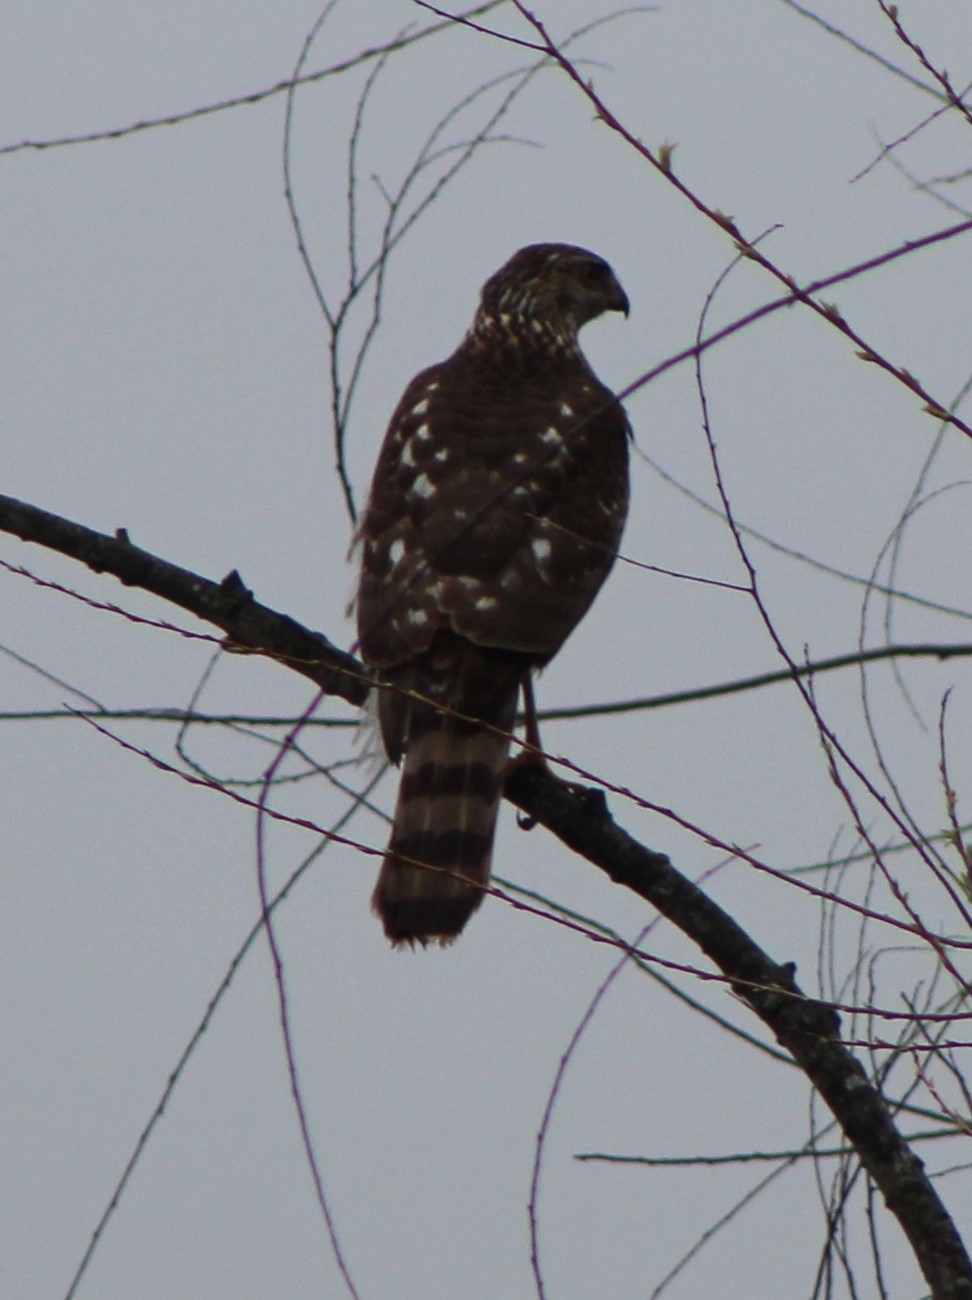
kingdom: Animalia
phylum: Chordata
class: Aves
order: Accipitriformes
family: Accipitridae
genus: Accipiter
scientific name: Accipiter cooperii
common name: Cooper's hawk
